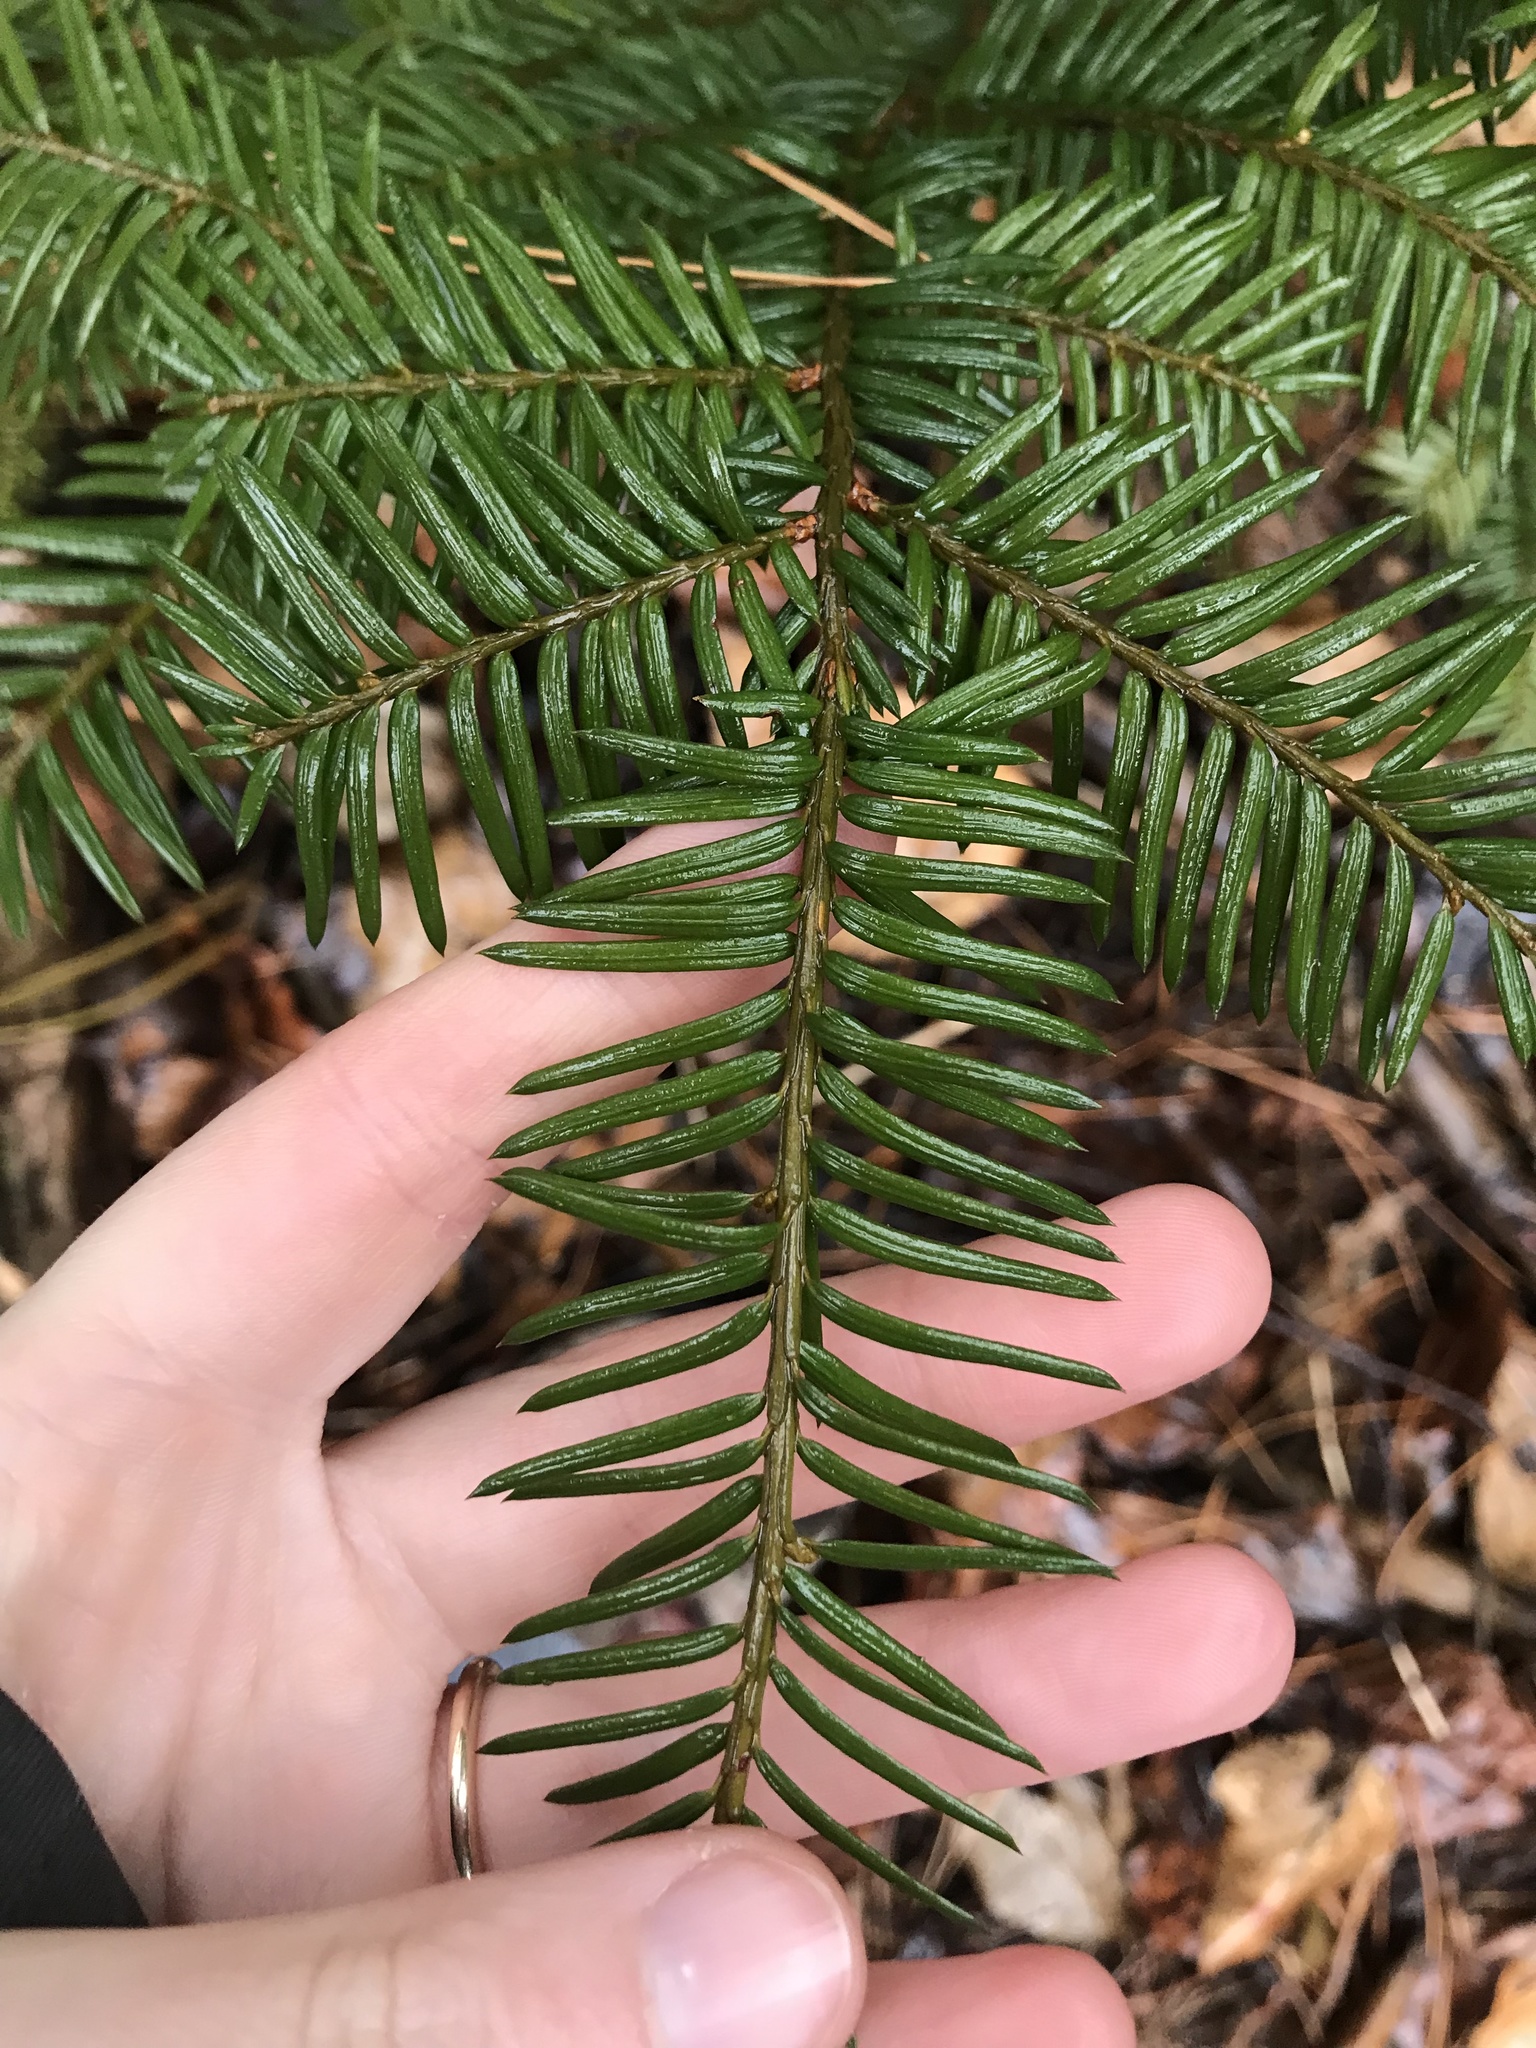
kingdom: Plantae
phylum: Tracheophyta
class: Pinopsida
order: Pinales
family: Taxaceae
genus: Taxus
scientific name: Taxus canadensis
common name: American yew
